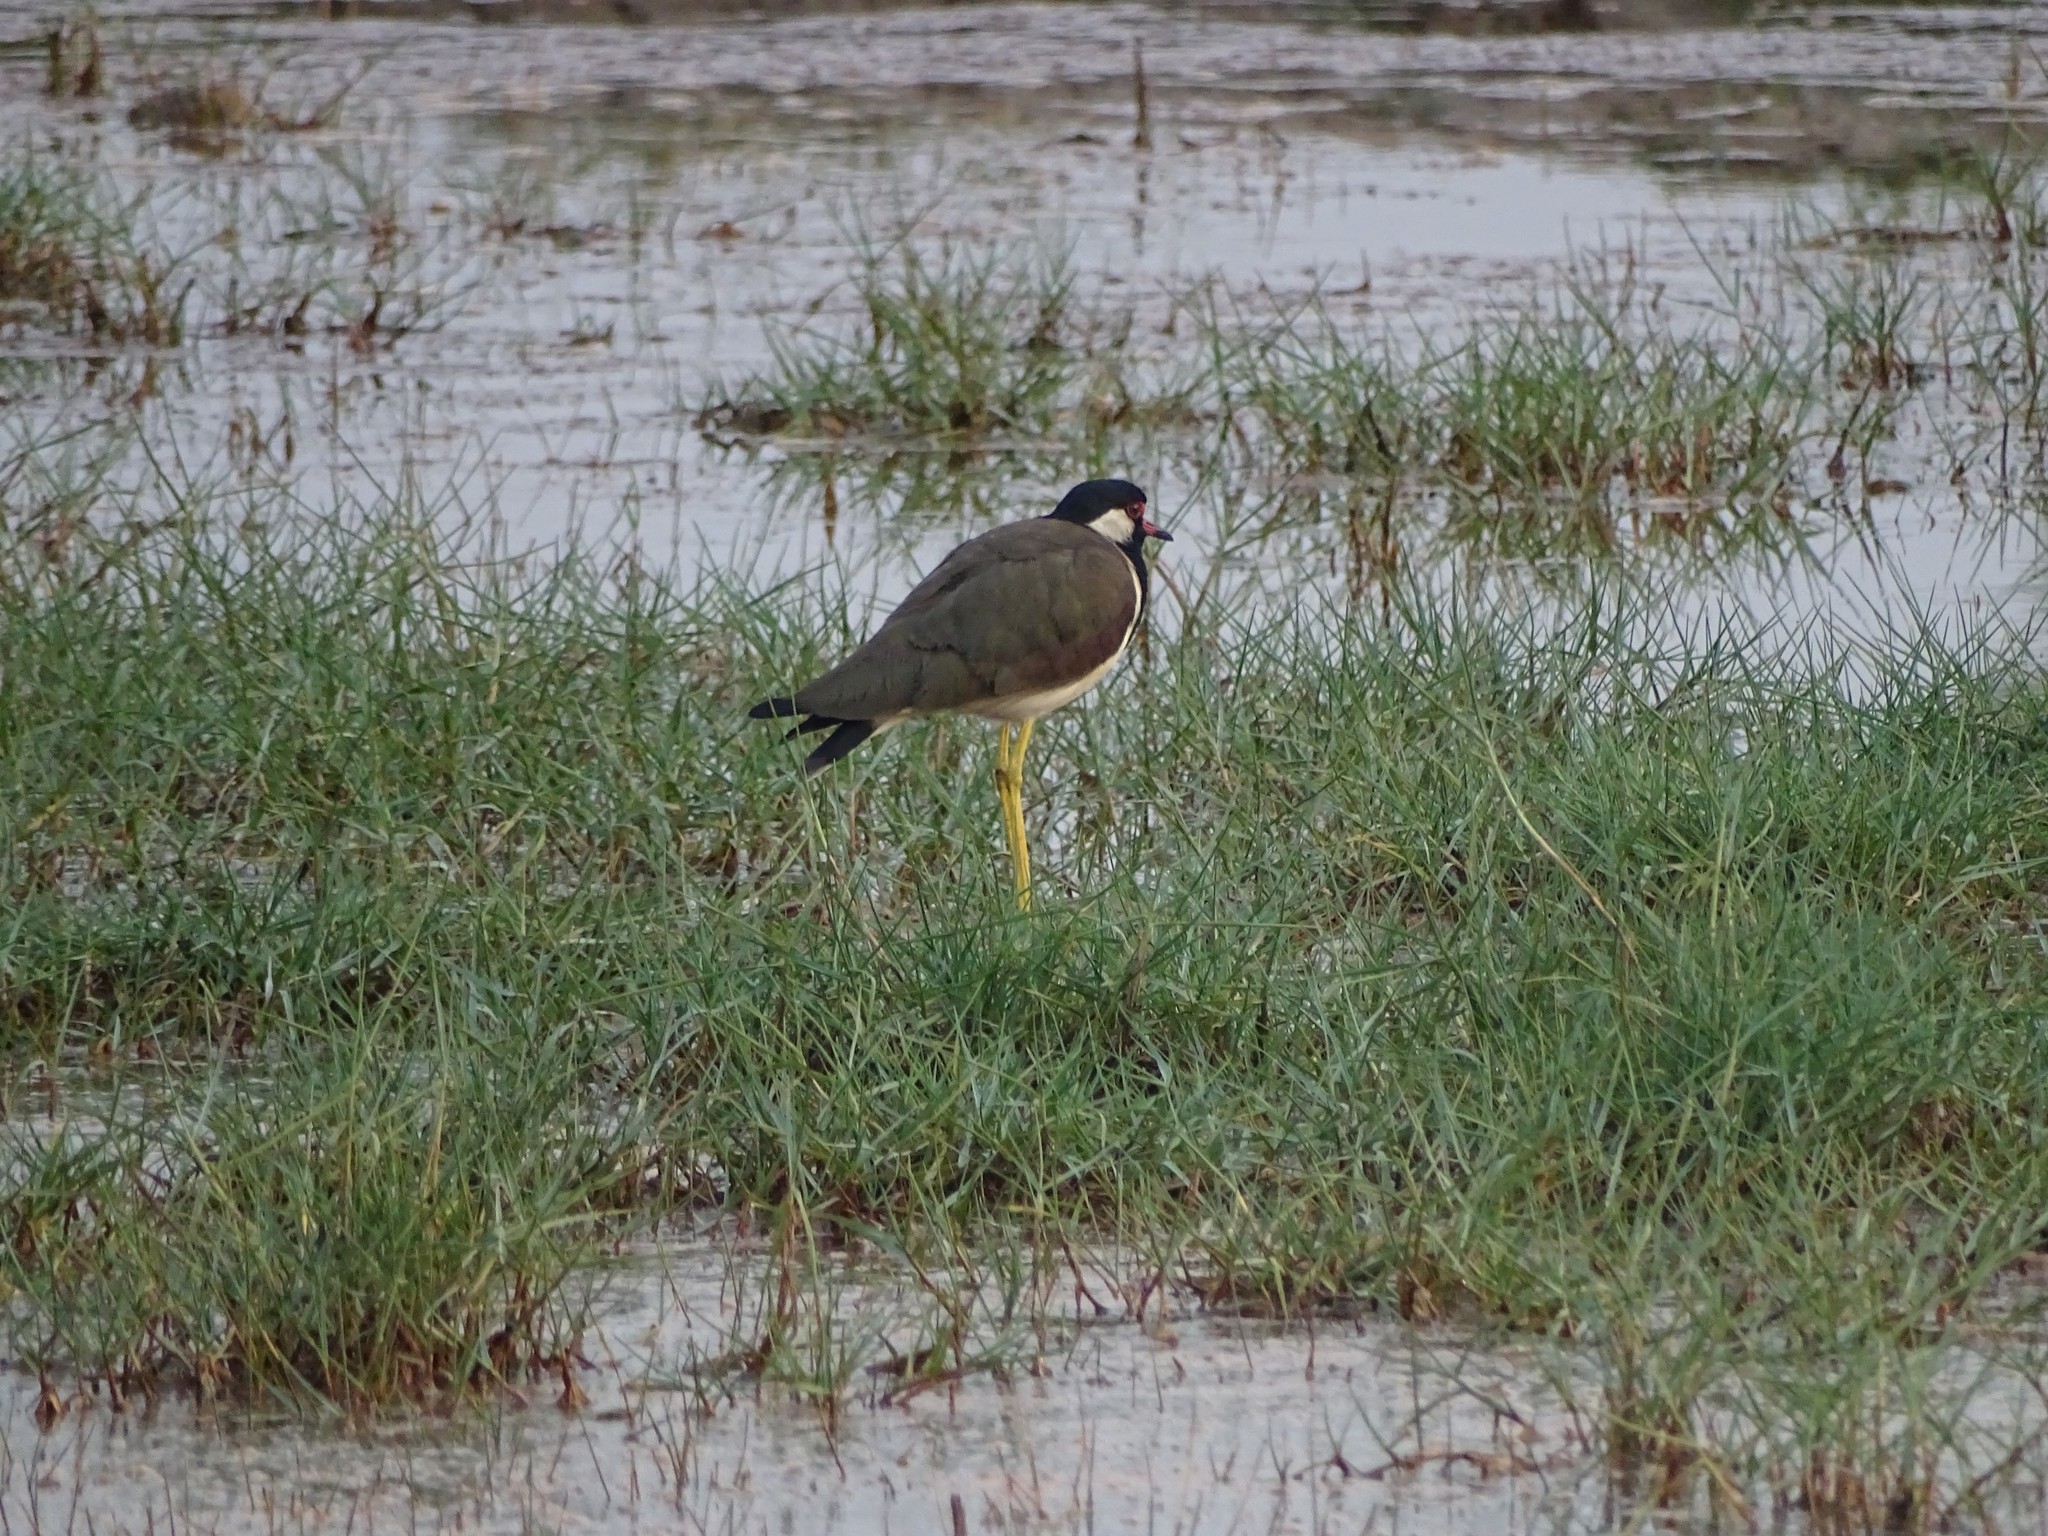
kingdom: Animalia
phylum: Chordata
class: Aves
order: Charadriiformes
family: Charadriidae
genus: Vanellus
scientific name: Vanellus indicus
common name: Red-wattled lapwing
